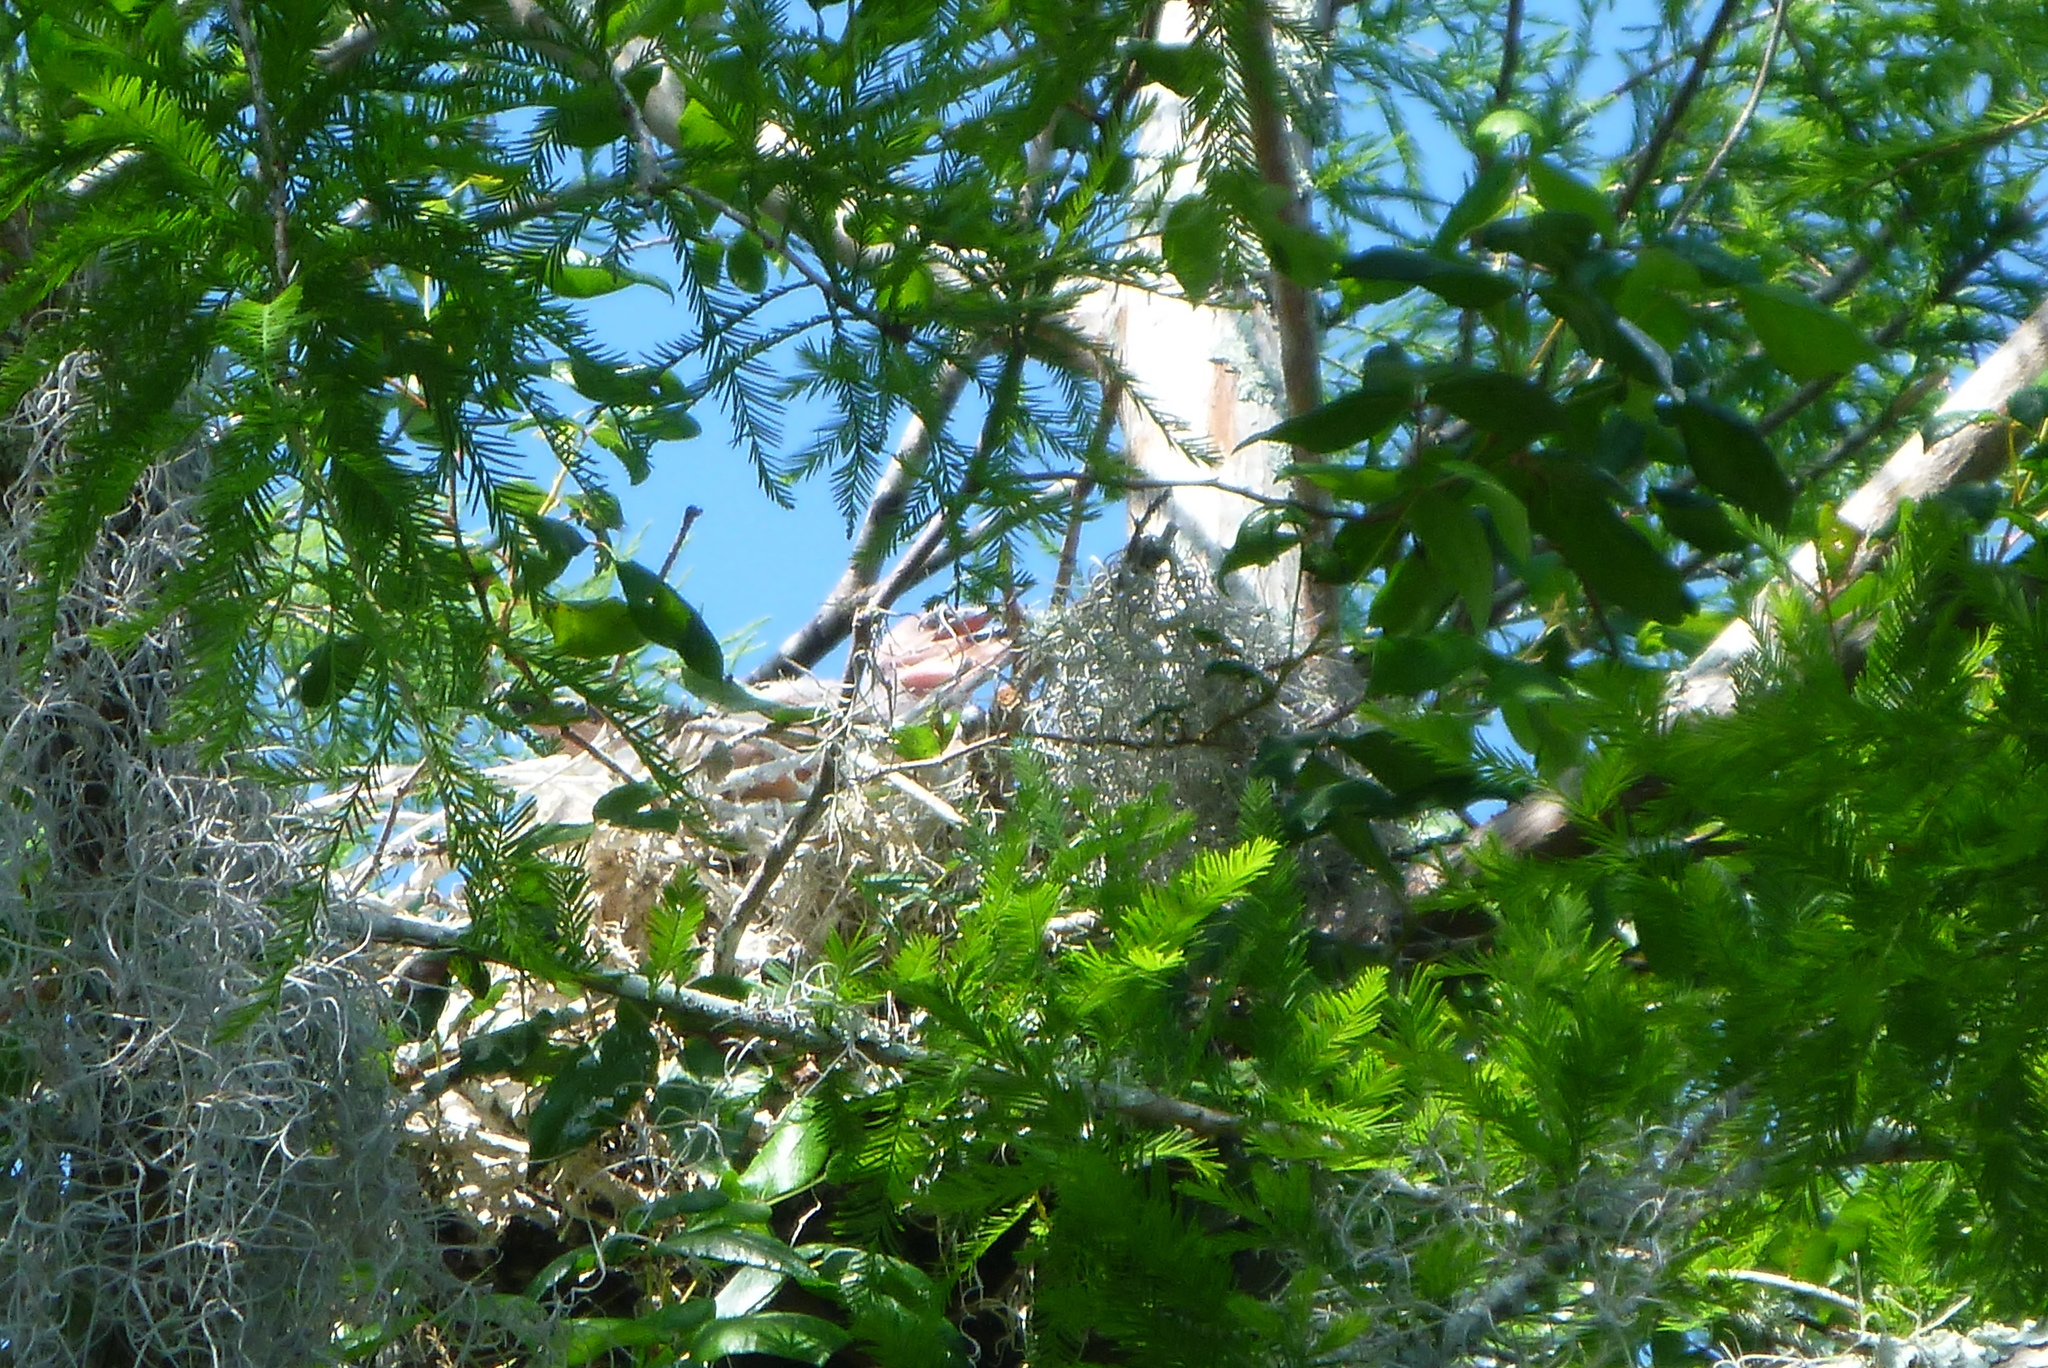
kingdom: Animalia
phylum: Chordata
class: Aves
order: Suliformes
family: Anhingidae
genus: Anhinga
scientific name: Anhinga anhinga
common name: Anhinga
